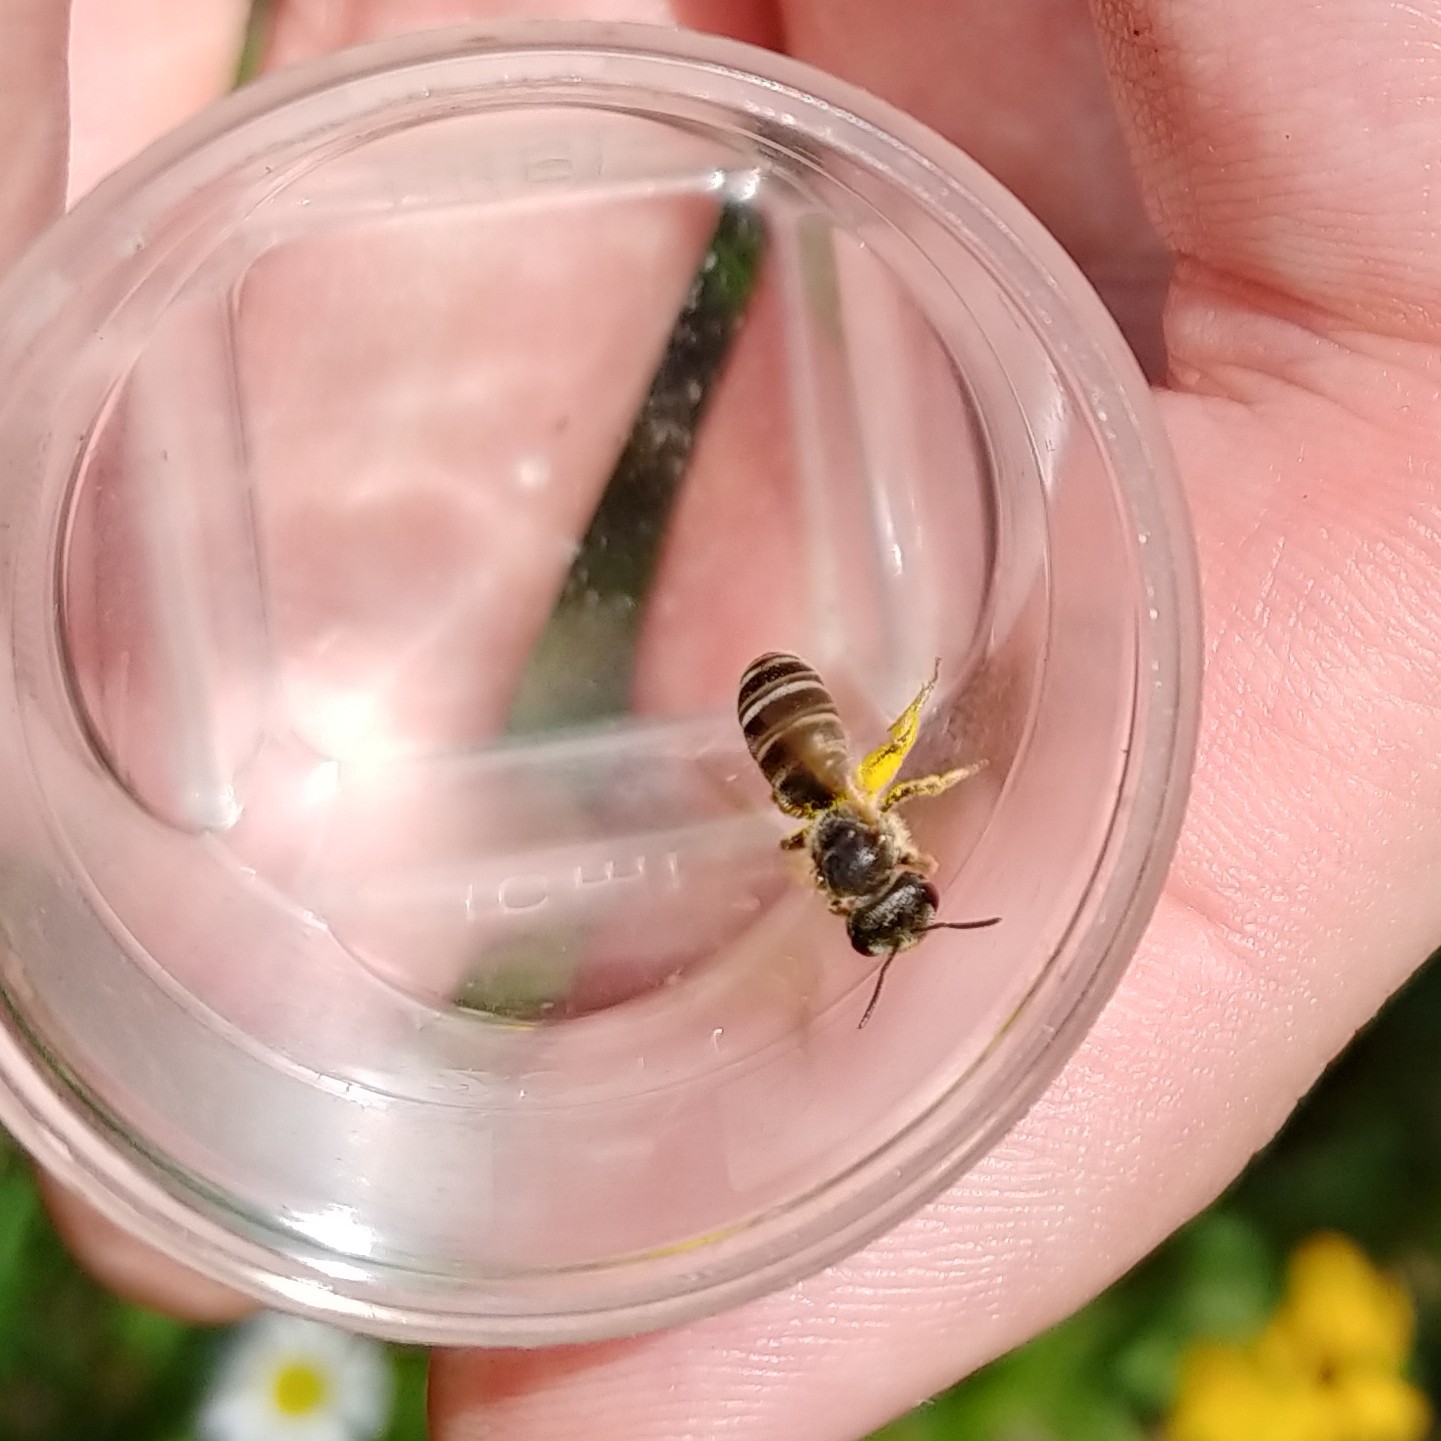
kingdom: Animalia
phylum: Arthropoda
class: Insecta
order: Hymenoptera
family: Halictidae
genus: Halictus
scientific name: Halictus ligatus
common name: Ligated furrow bee
